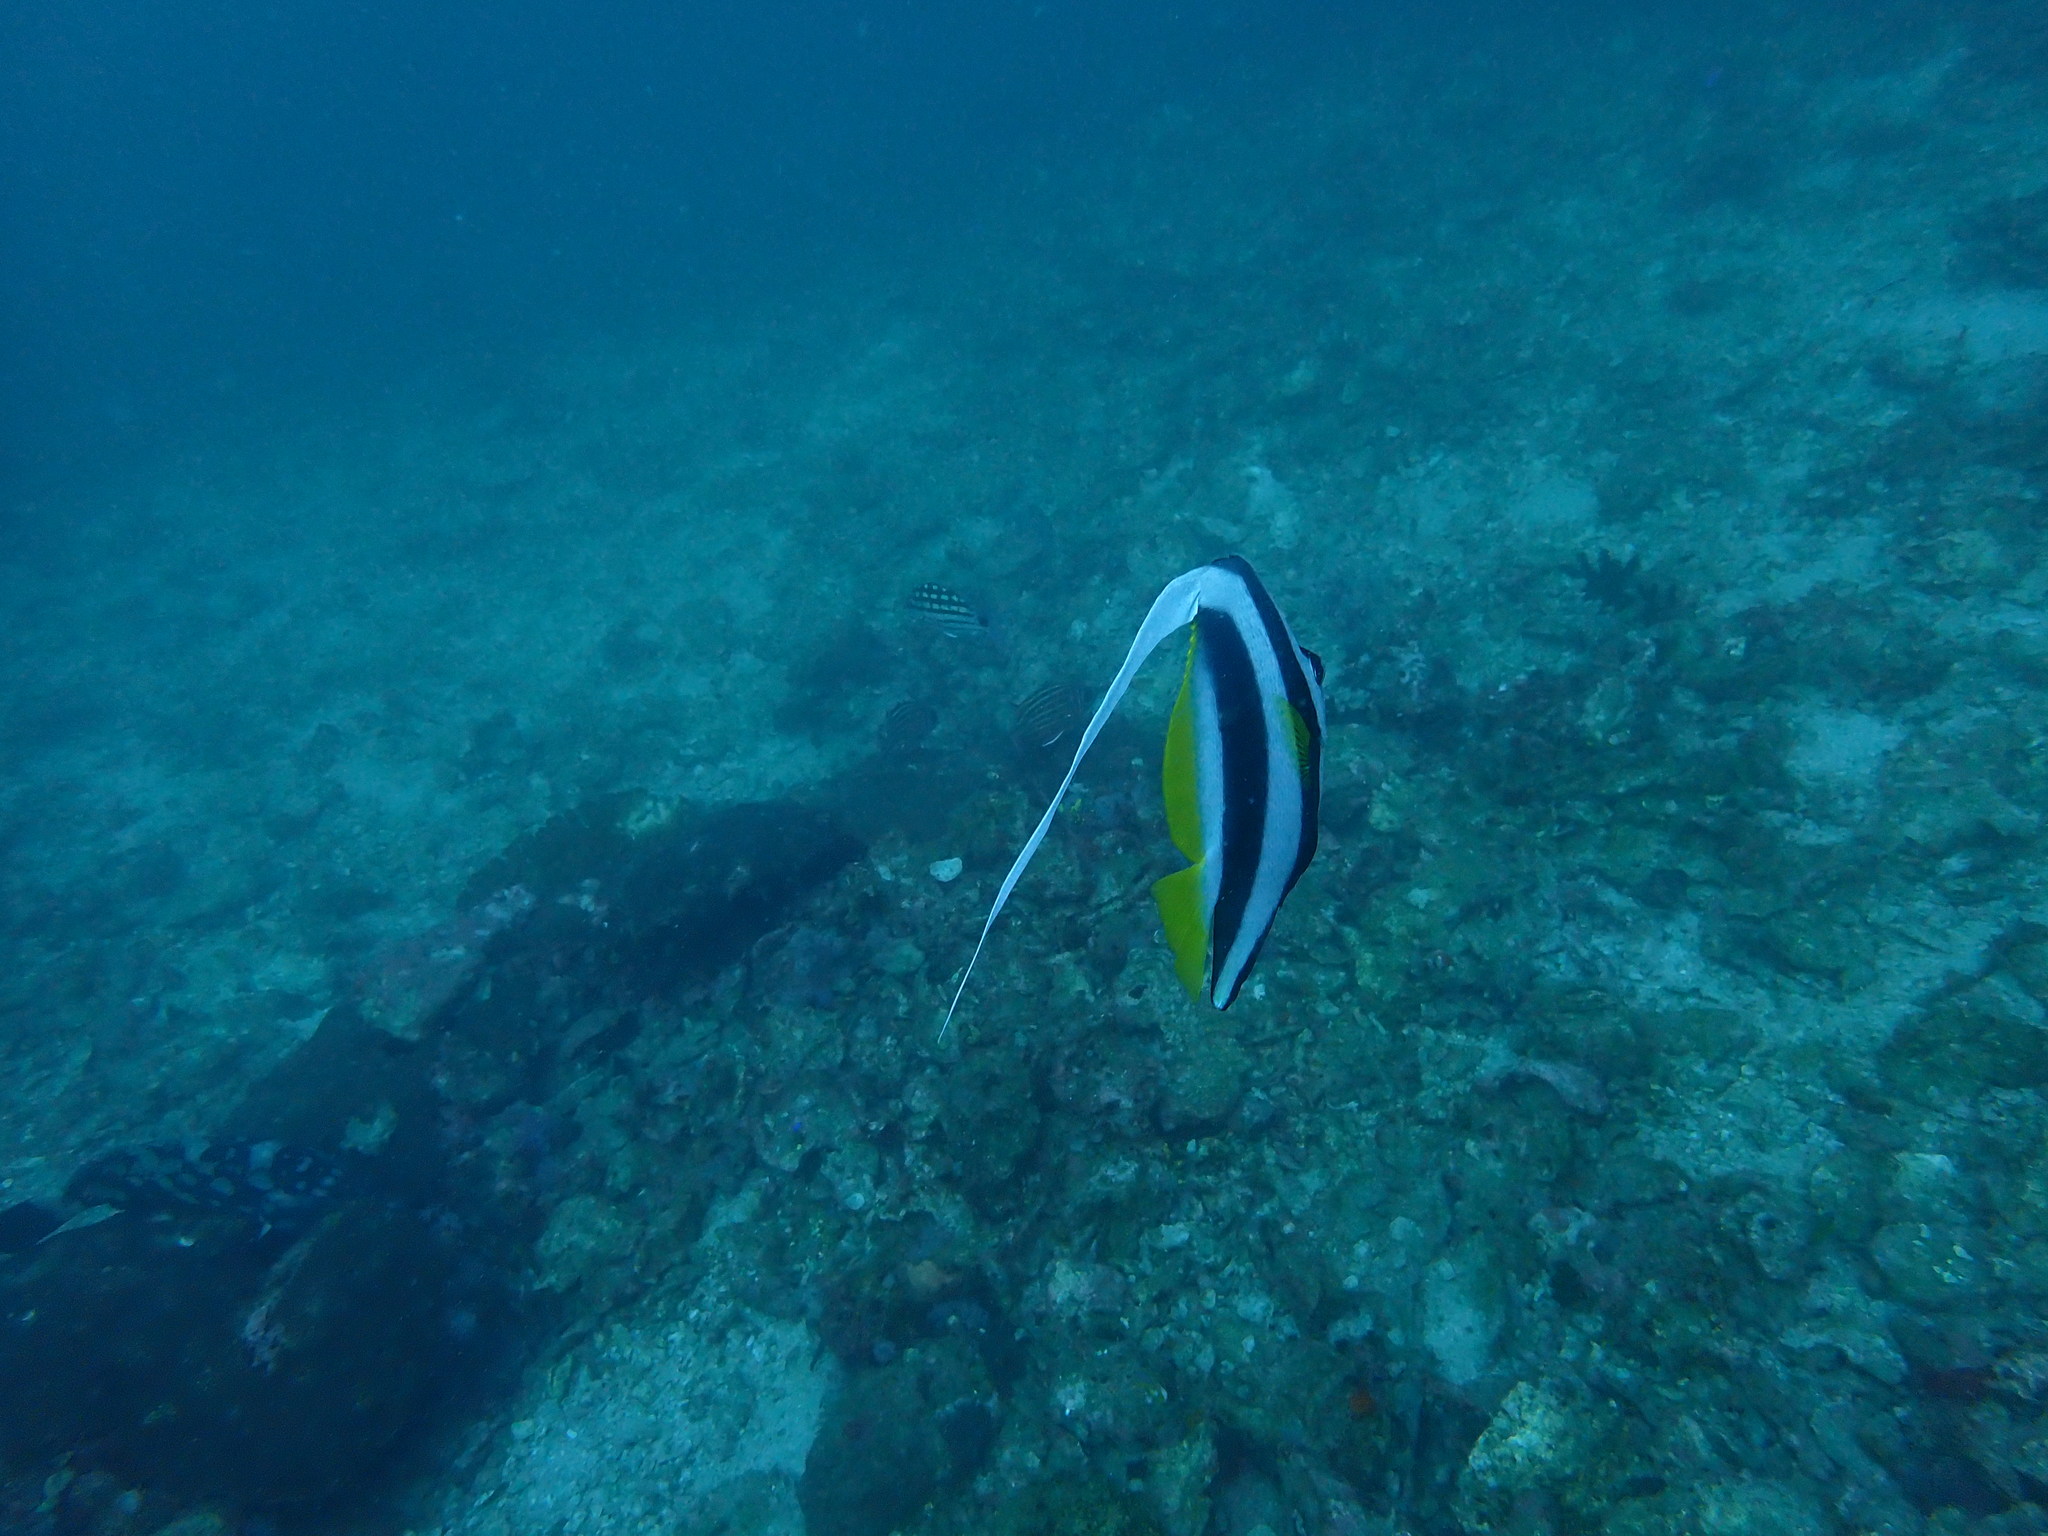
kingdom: Animalia
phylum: Chordata
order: Perciformes
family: Chaetodontidae
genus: Heniochus
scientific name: Heniochus acuminatus
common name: Pennant coralfish
